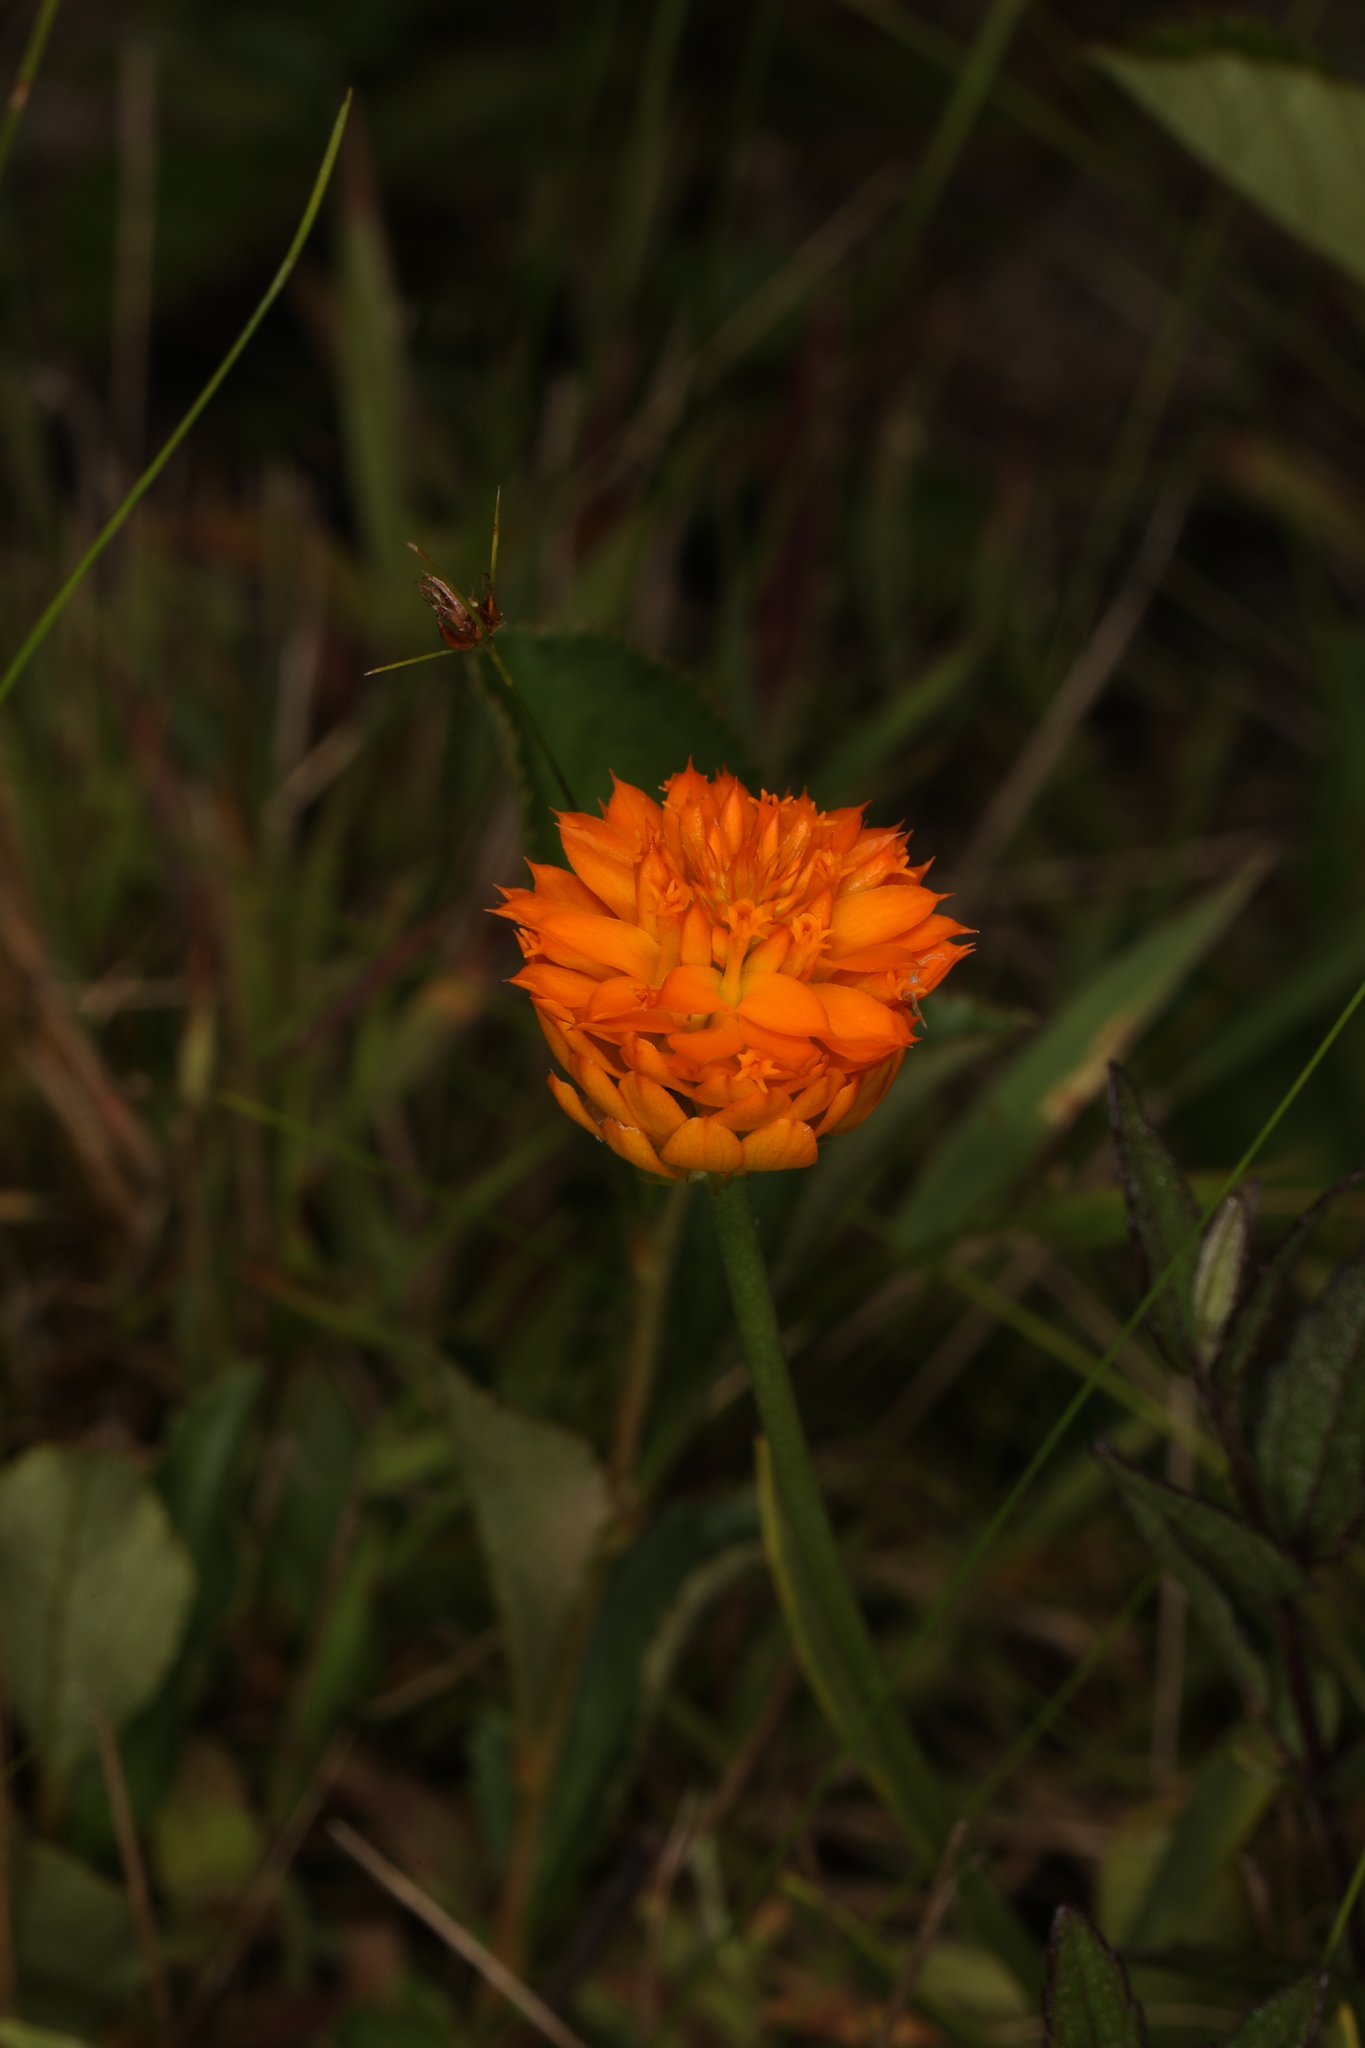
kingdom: Plantae
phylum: Tracheophyta
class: Magnoliopsida
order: Fabales
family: Polygalaceae
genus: Polygala
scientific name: Polygala lutea
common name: Orange milkwort
